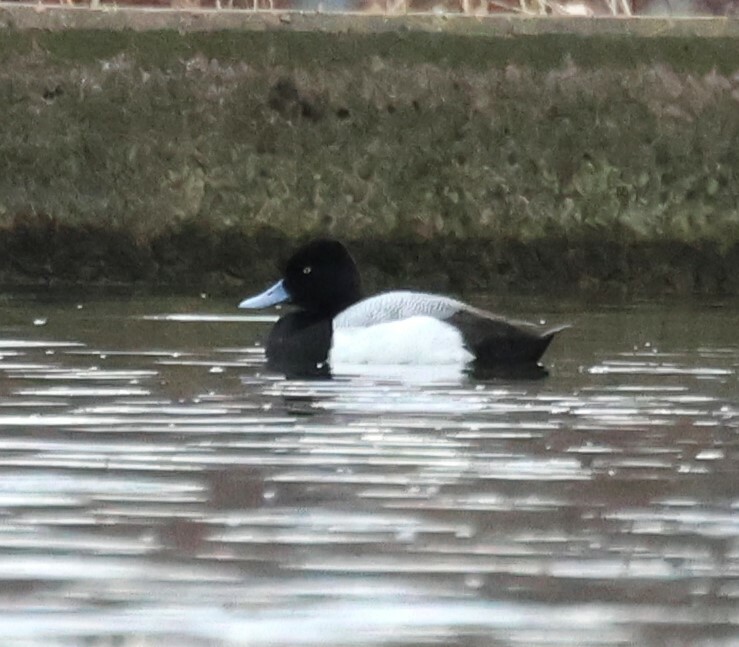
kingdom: Animalia
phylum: Chordata
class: Aves
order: Anseriformes
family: Anatidae
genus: Aythya
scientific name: Aythya affinis
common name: Lesser scaup
